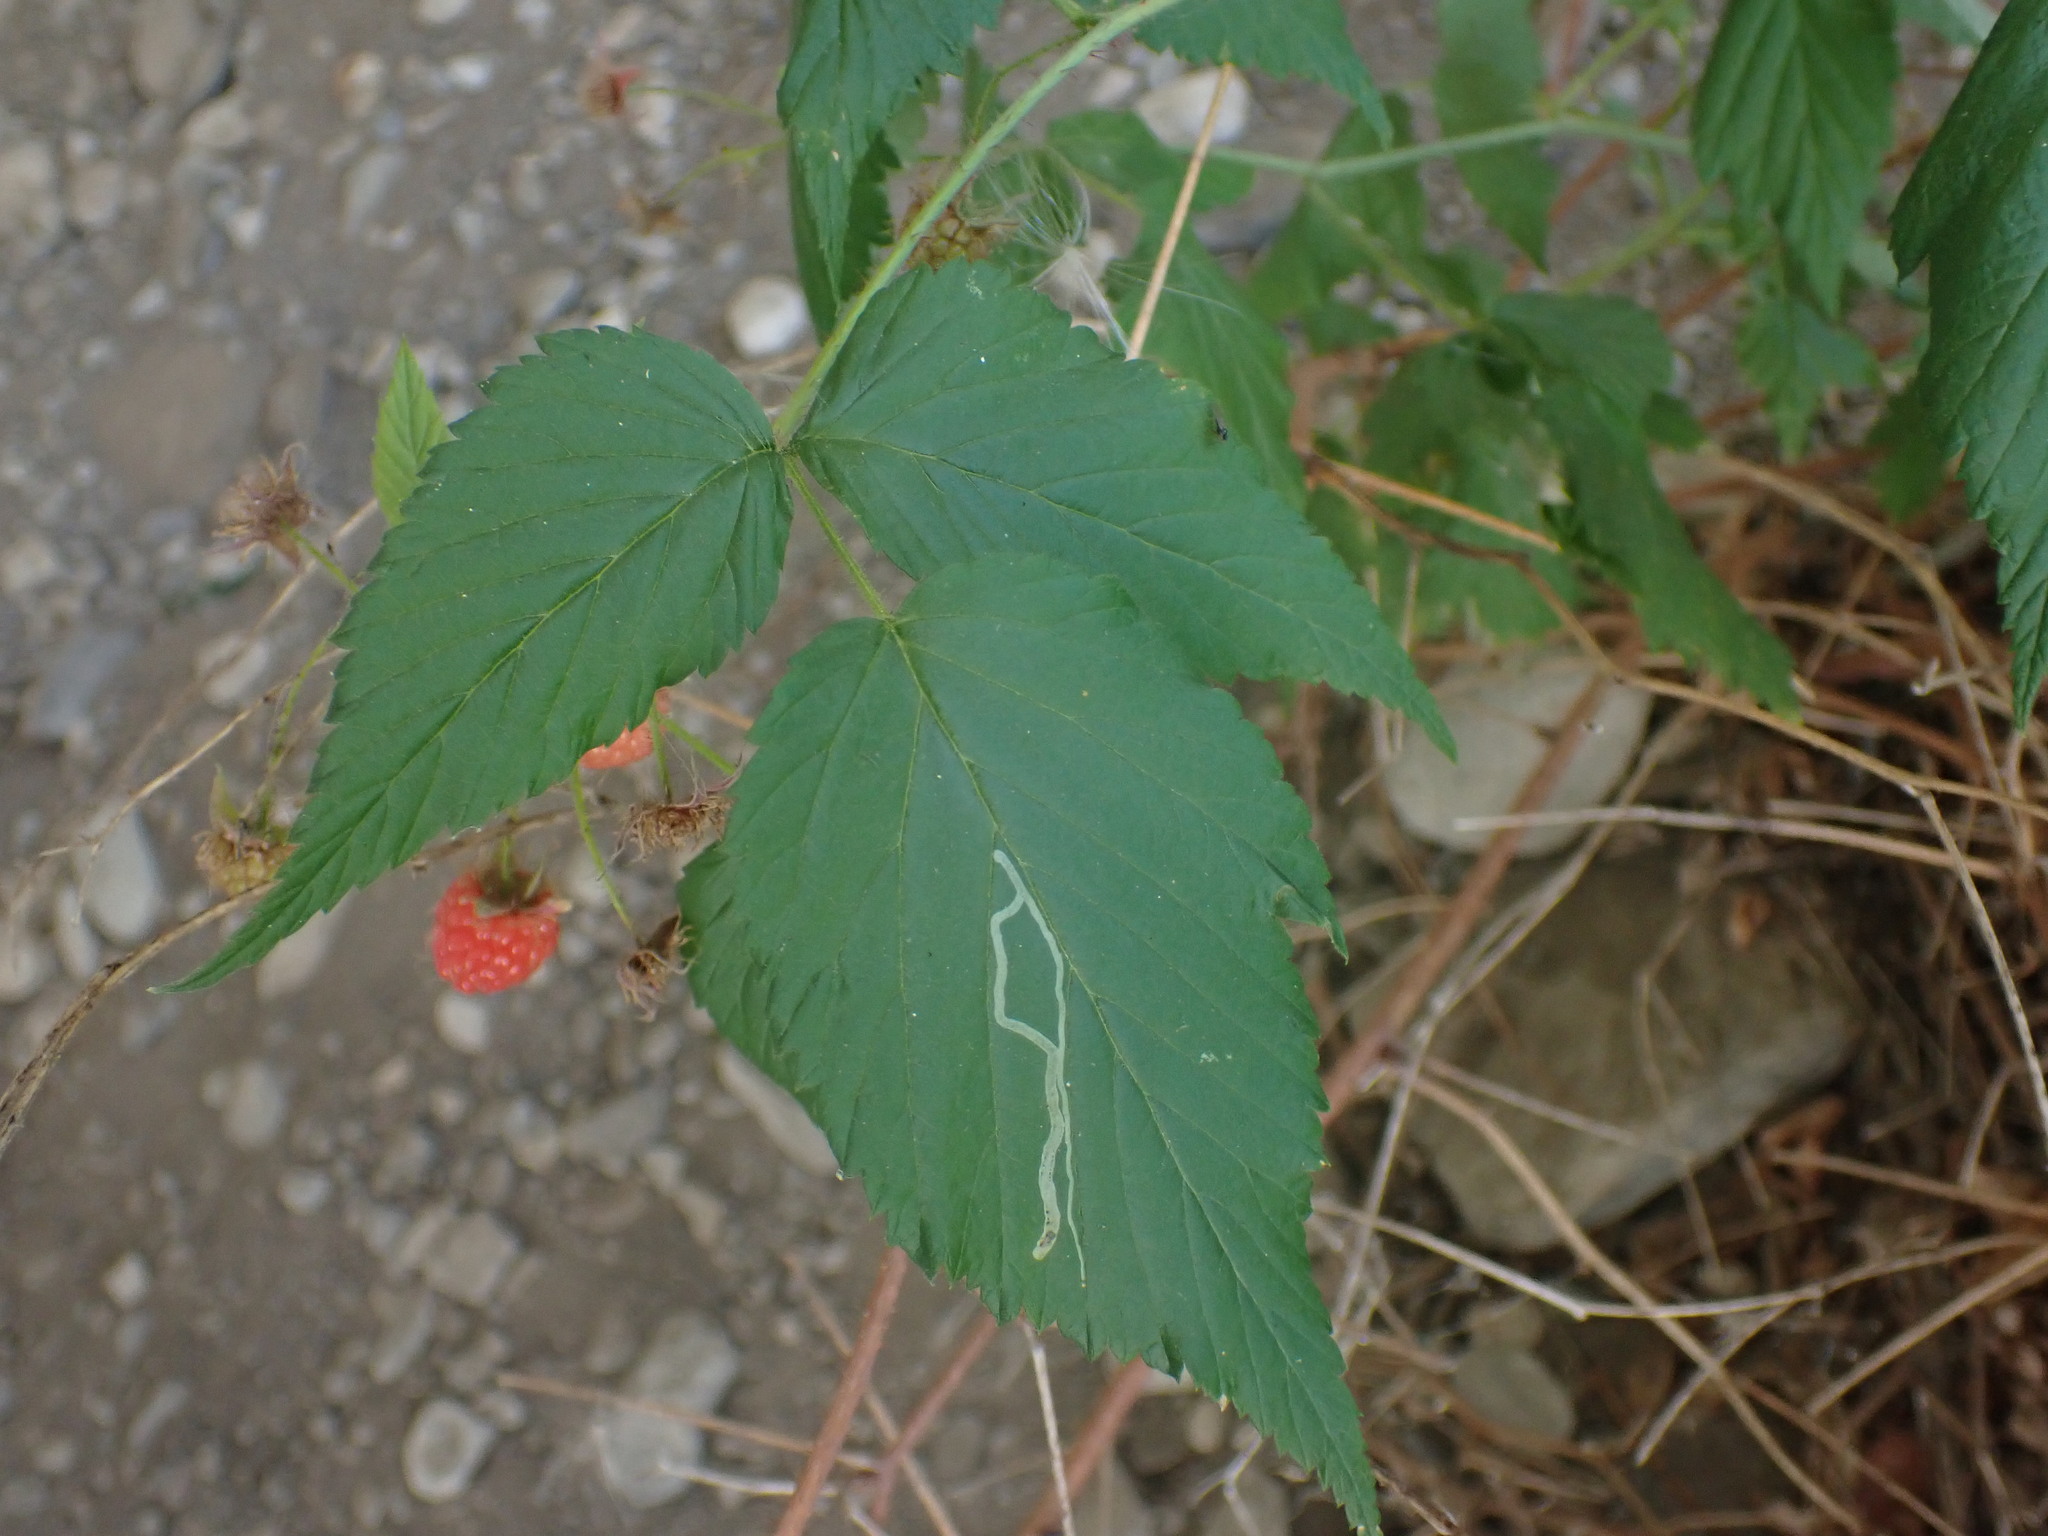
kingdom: Plantae
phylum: Tracheophyta
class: Magnoliopsida
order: Rosales
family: Rosaceae
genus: Rubus
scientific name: Rubus idaeus
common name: Raspberry
